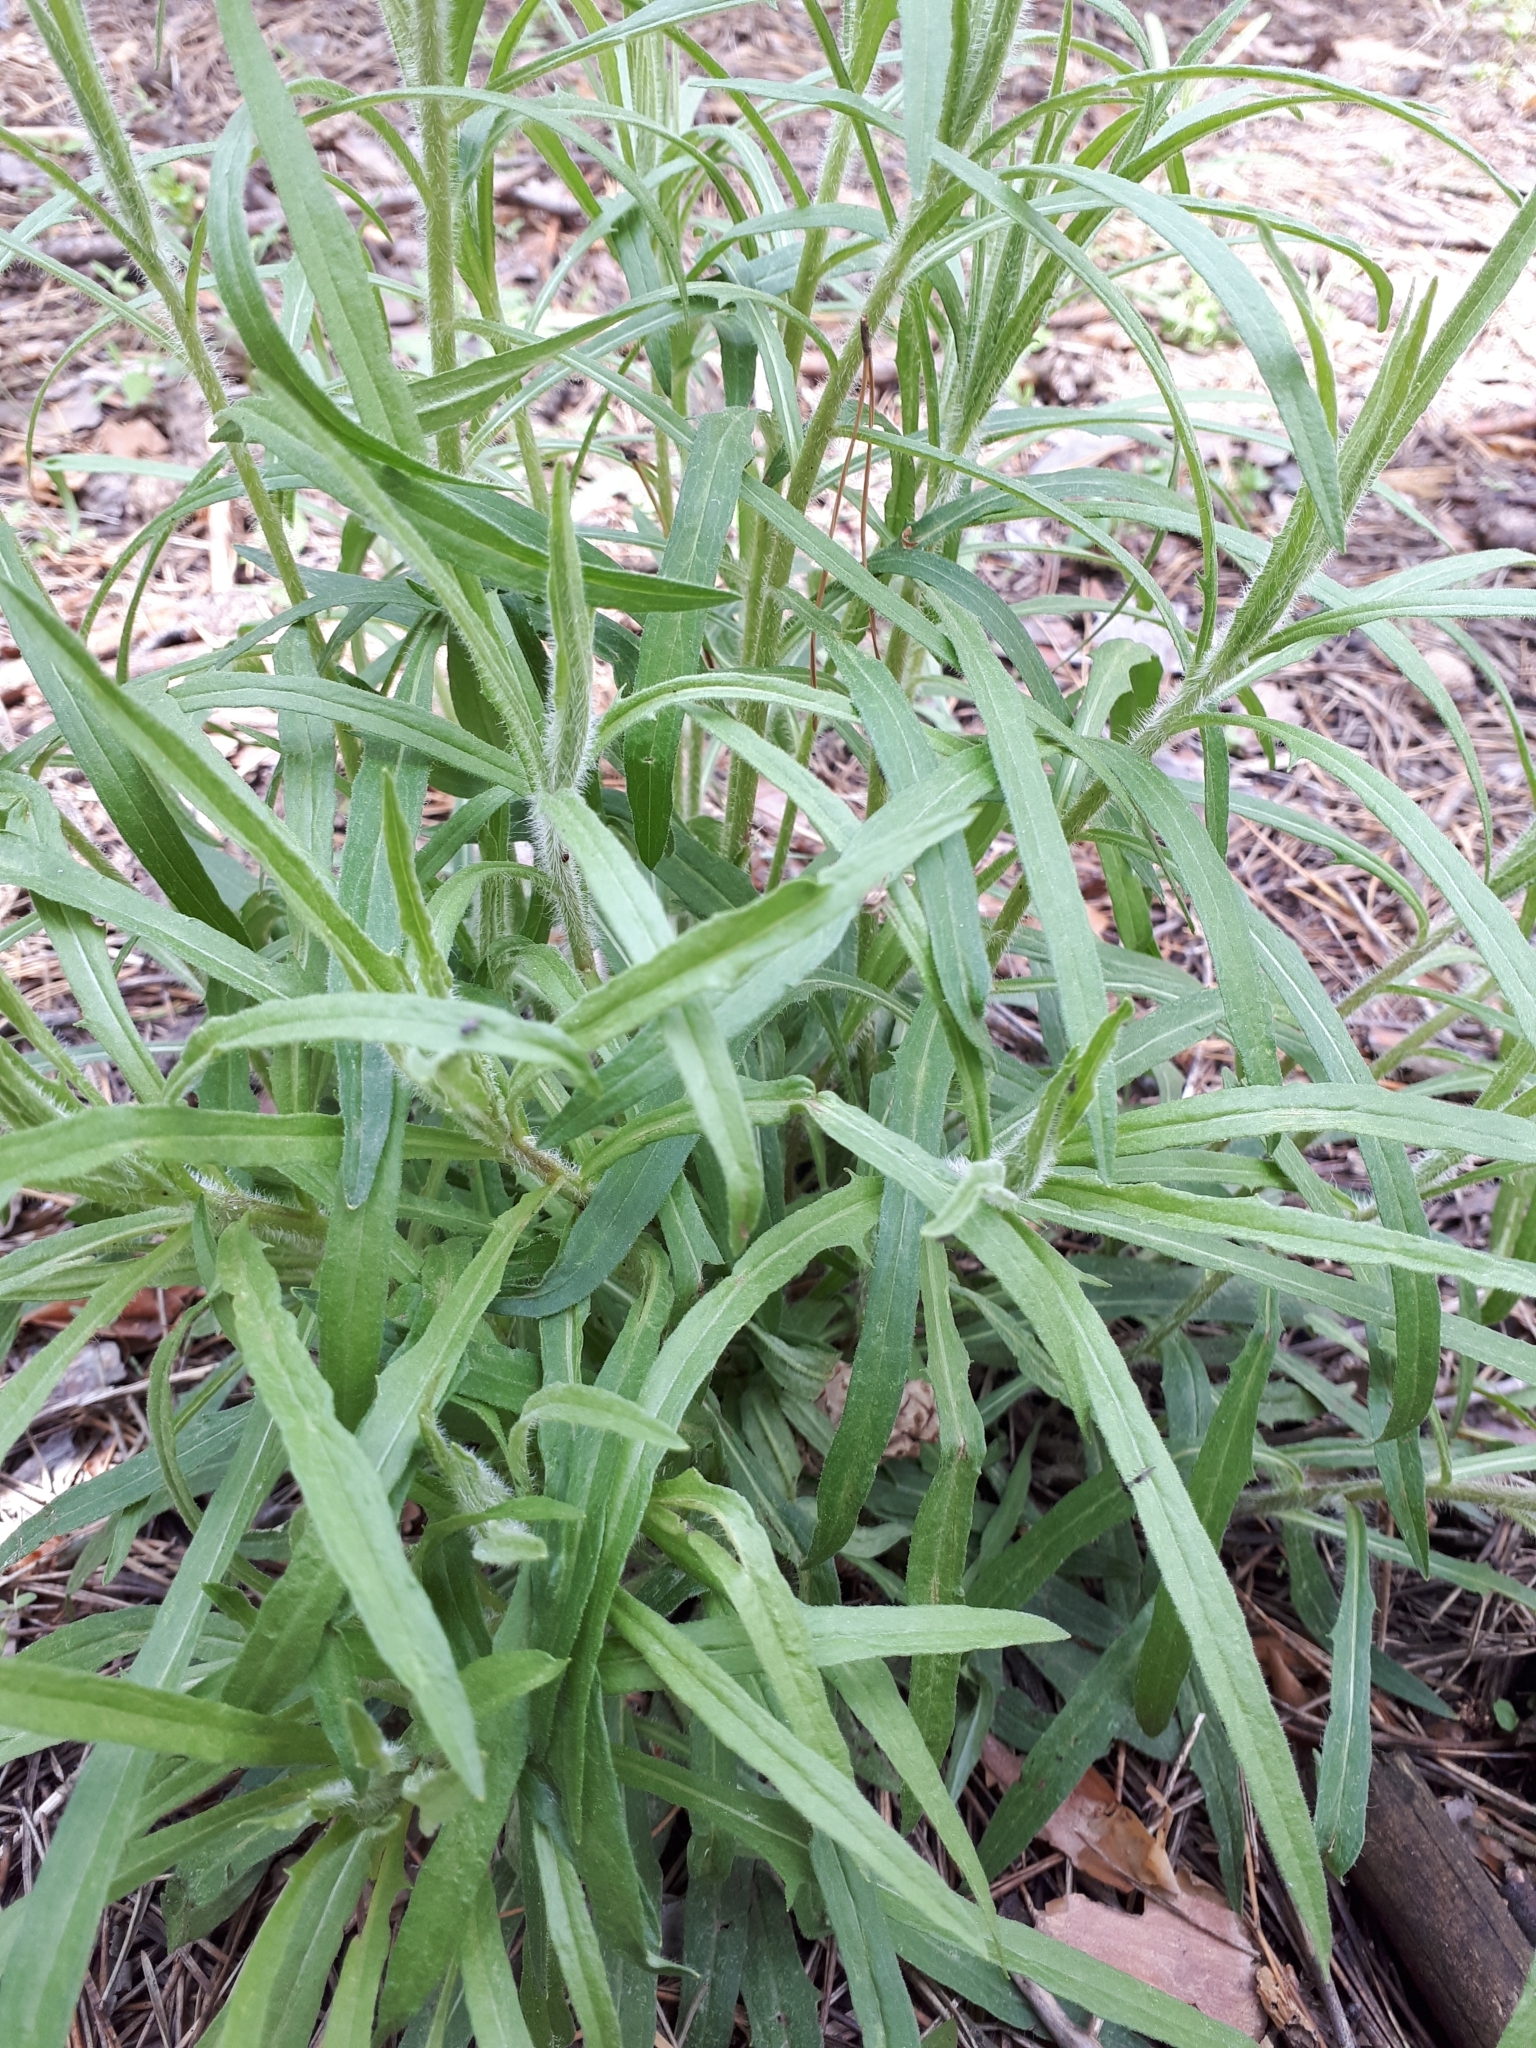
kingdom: Plantae
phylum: Tracheophyta
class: Magnoliopsida
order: Asterales
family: Asteraceae
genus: Hieracium
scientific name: Hieracium umbellatum
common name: Northern hawkweed
